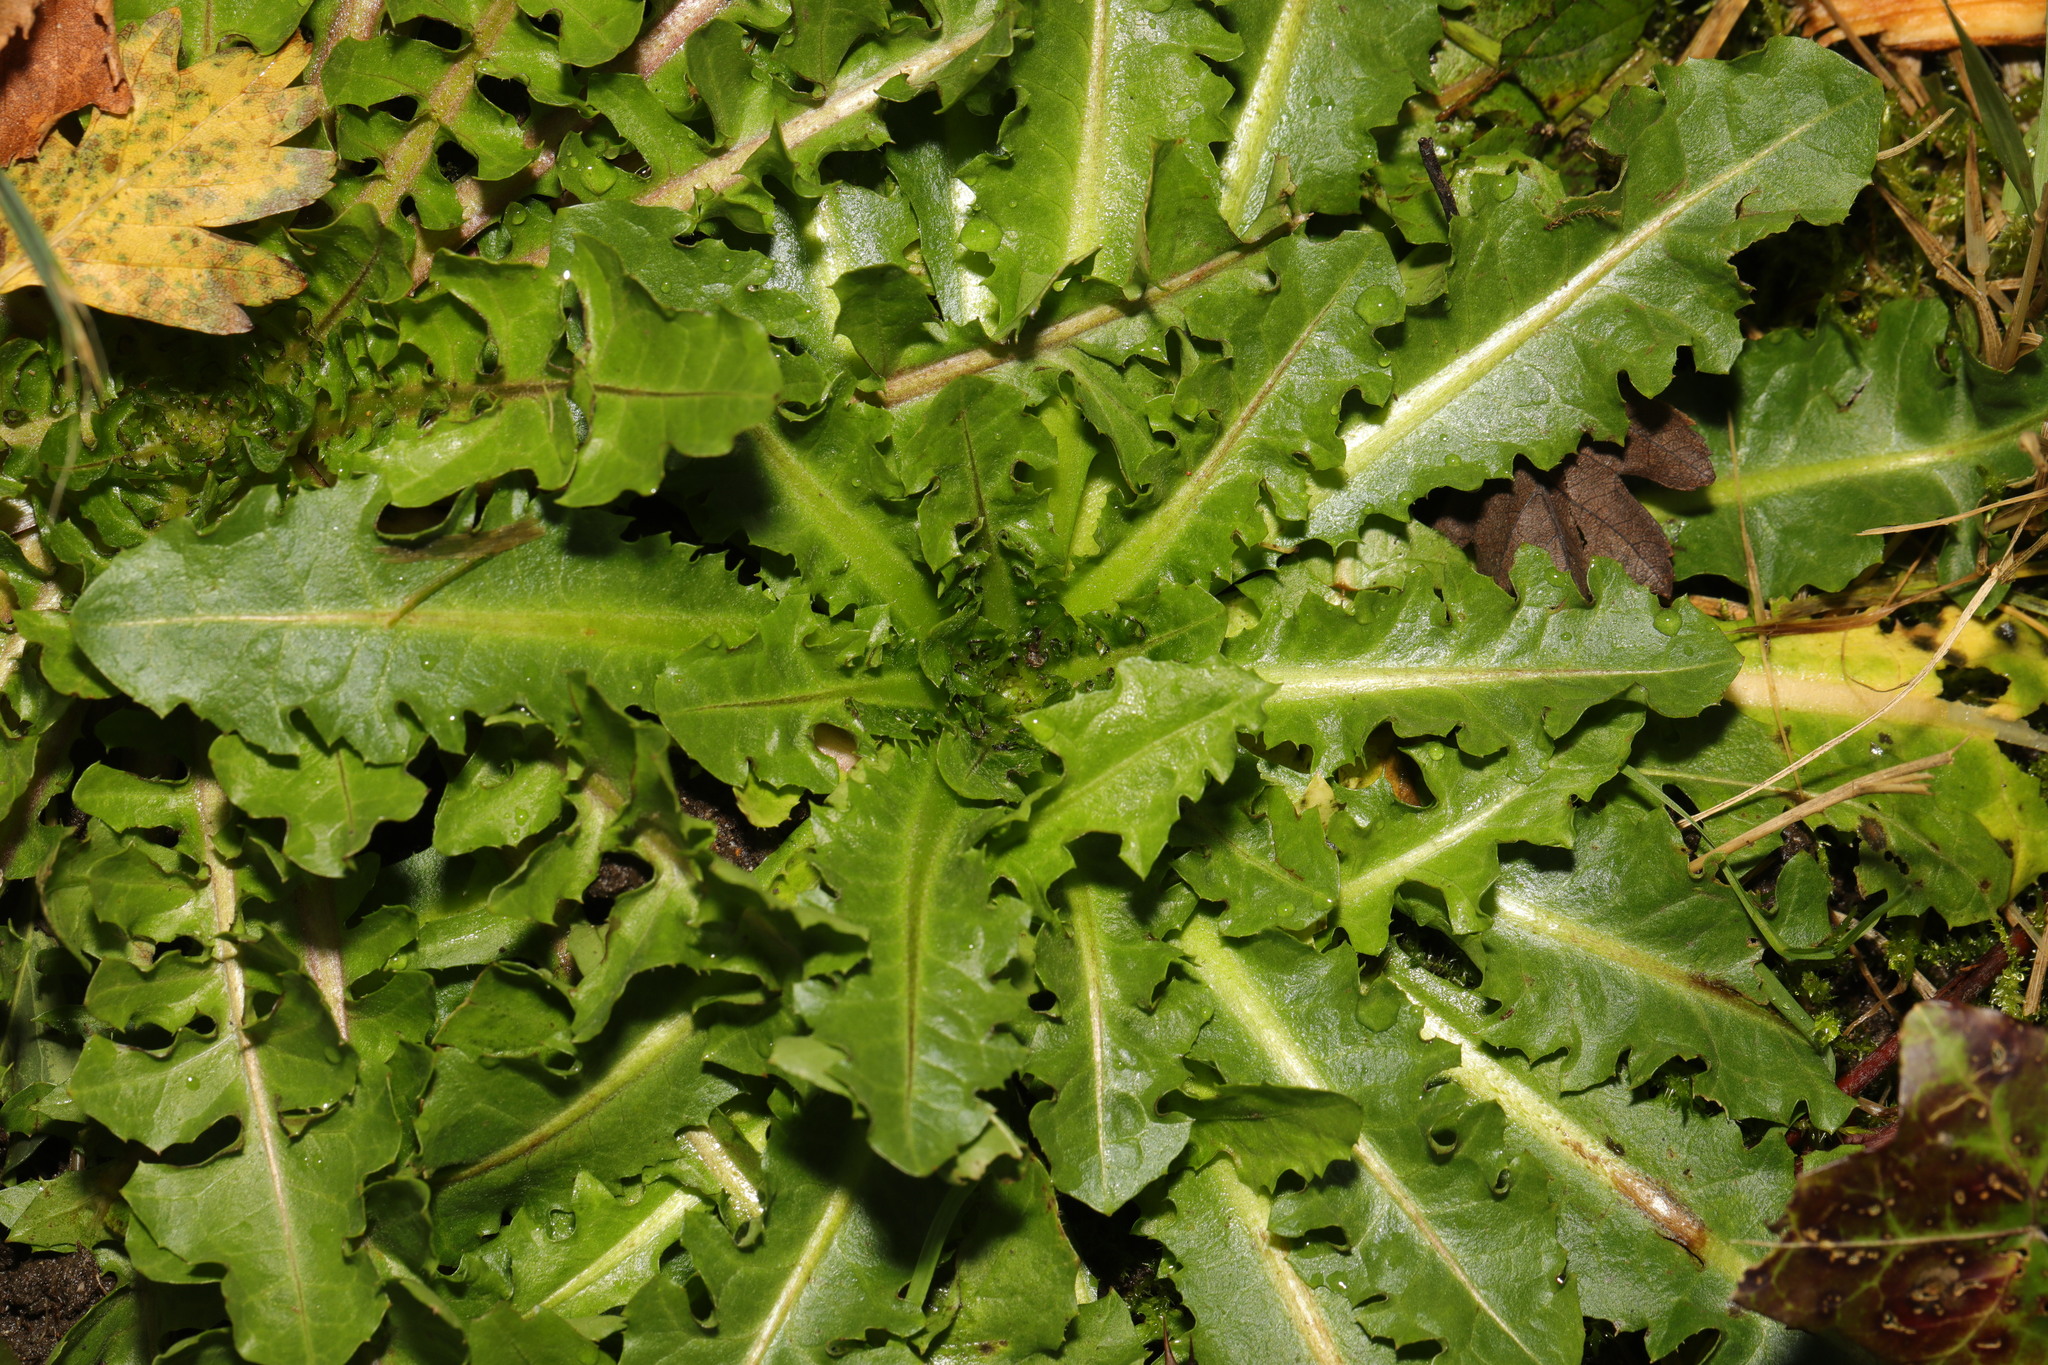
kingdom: Plantae
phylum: Tracheophyta
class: Magnoliopsida
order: Asterales
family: Asteraceae
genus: Taraxacum
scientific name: Taraxacum officinale
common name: Common dandelion
